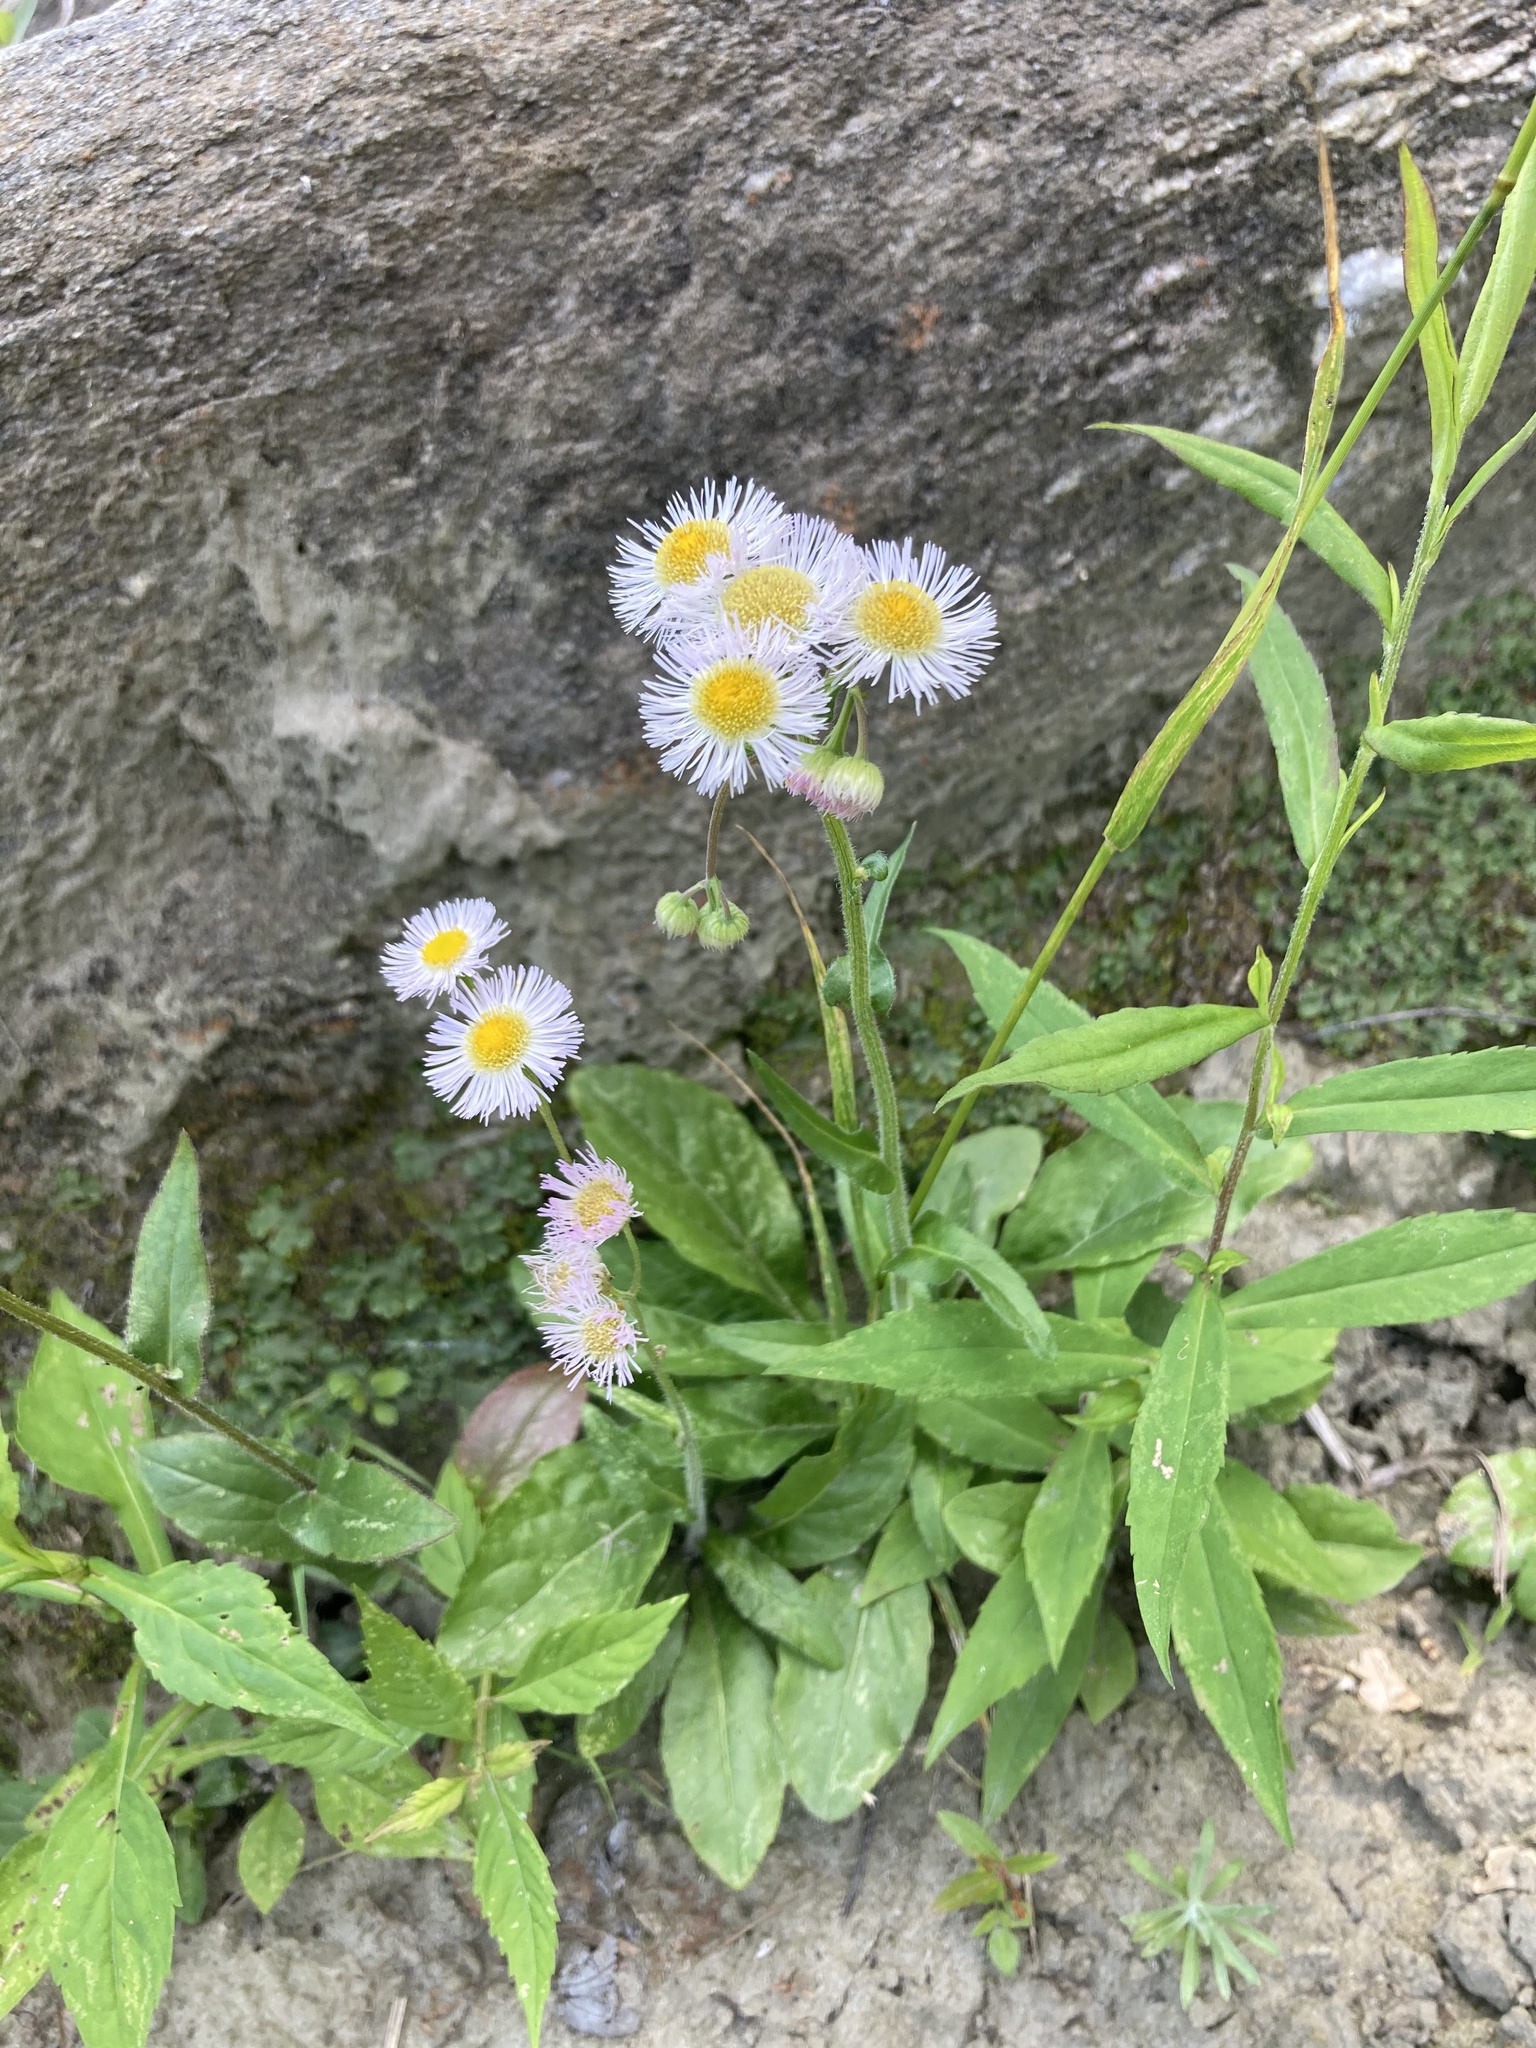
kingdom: Plantae
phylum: Tracheophyta
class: Magnoliopsida
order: Asterales
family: Asteraceae
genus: Erigeron
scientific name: Erigeron philadelphicus
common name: Robin's-plantain
